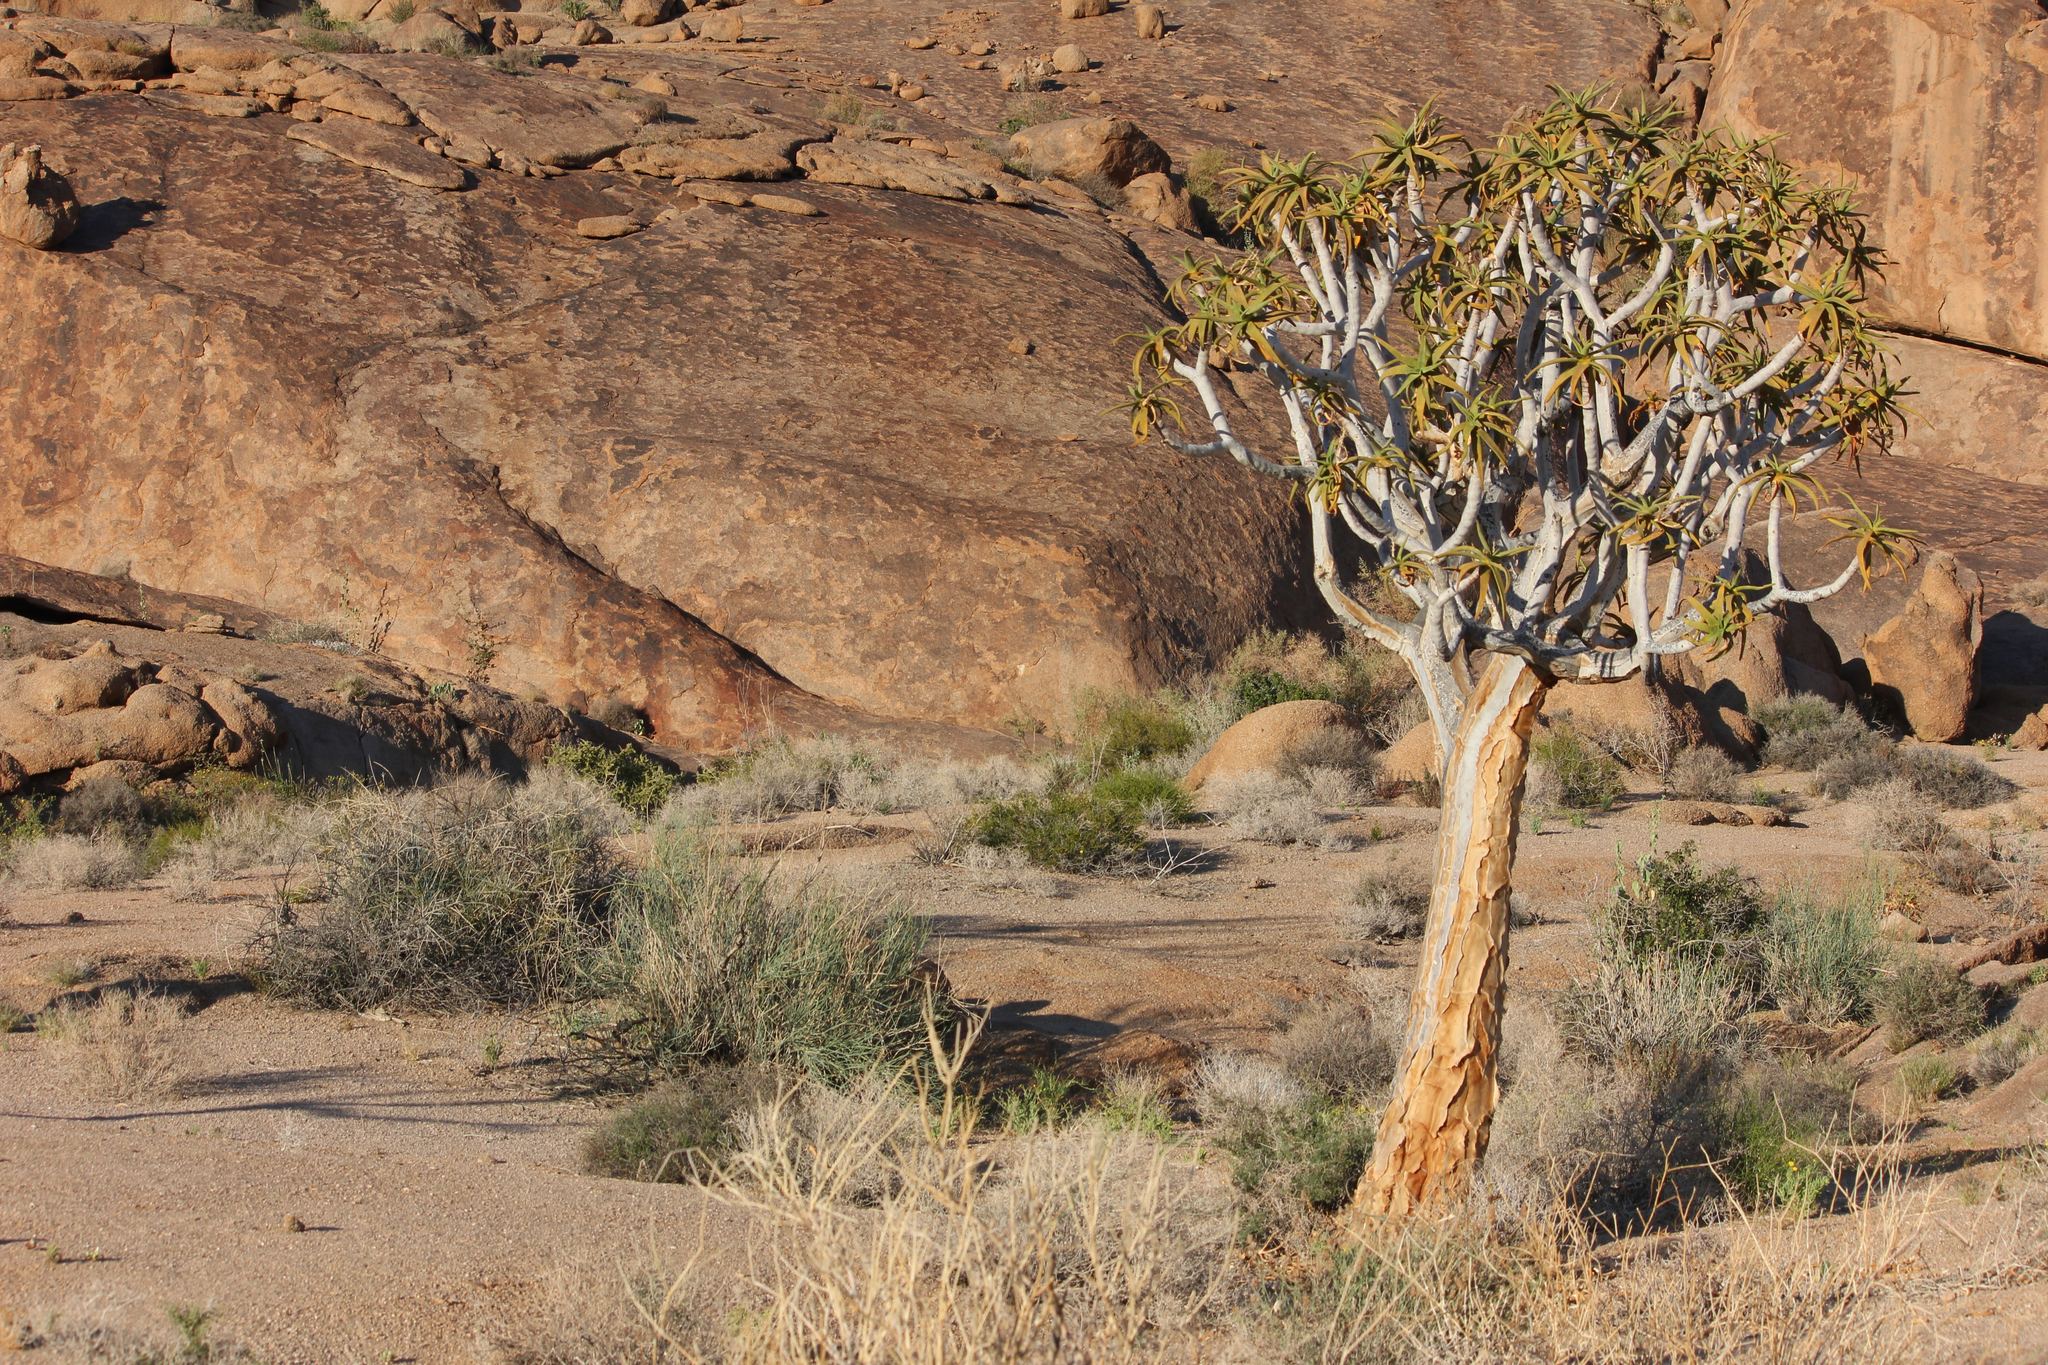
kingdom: Plantae
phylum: Tracheophyta
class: Liliopsida
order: Asparagales
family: Asphodelaceae
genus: Aloidendron
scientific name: Aloidendron dichotomum
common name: Quiver tree
